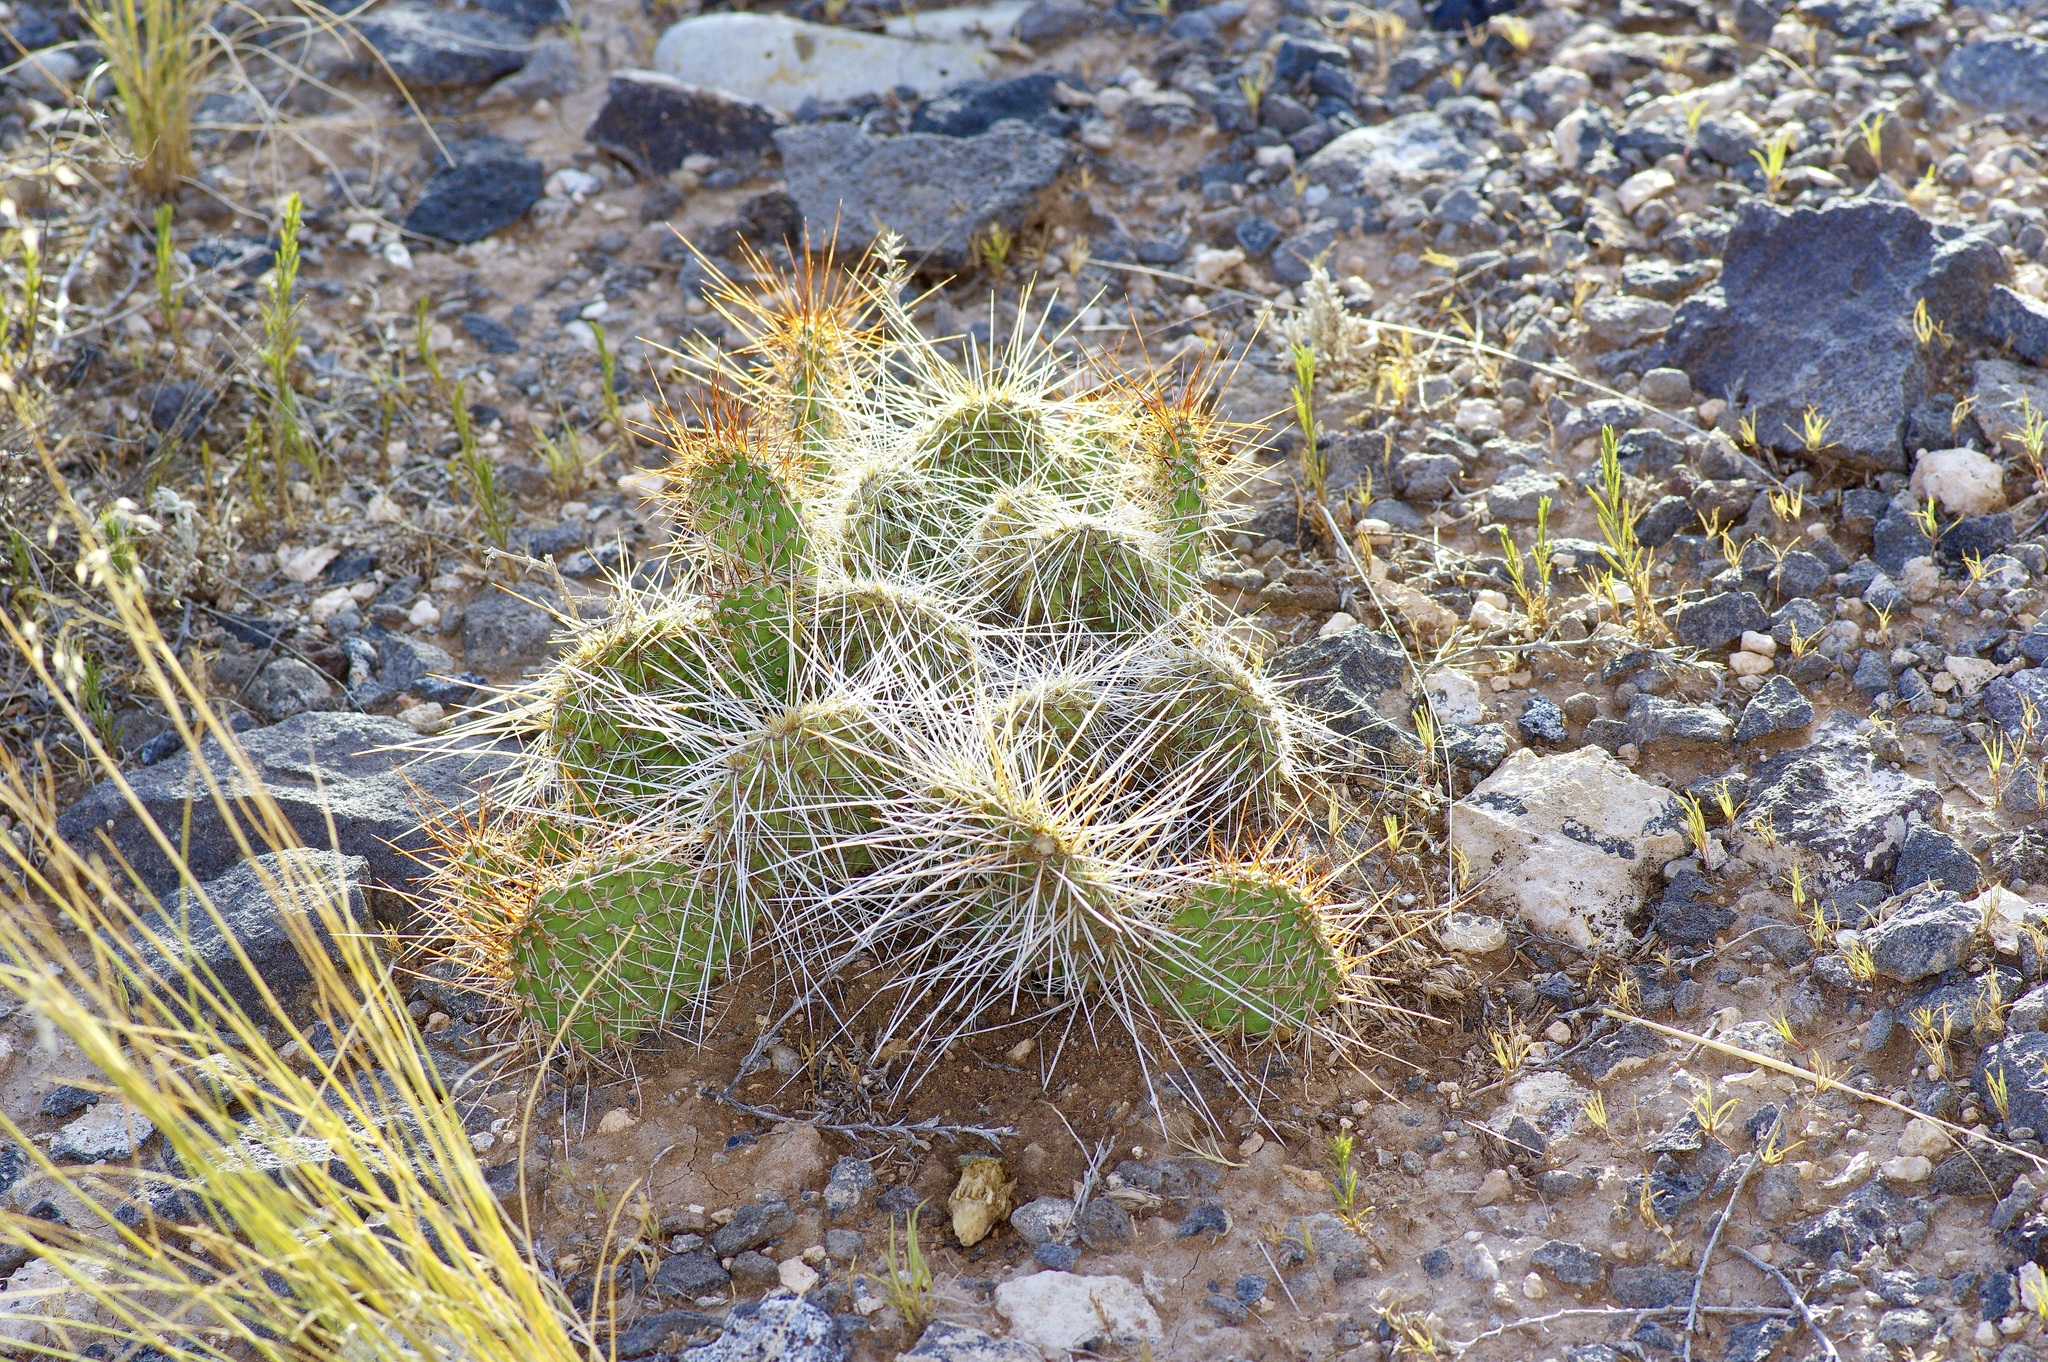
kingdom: Plantae
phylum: Tracheophyta
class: Magnoliopsida
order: Caryophyllales
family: Cactaceae
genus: Opuntia
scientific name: Opuntia polyacantha
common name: Plains prickly-pear
